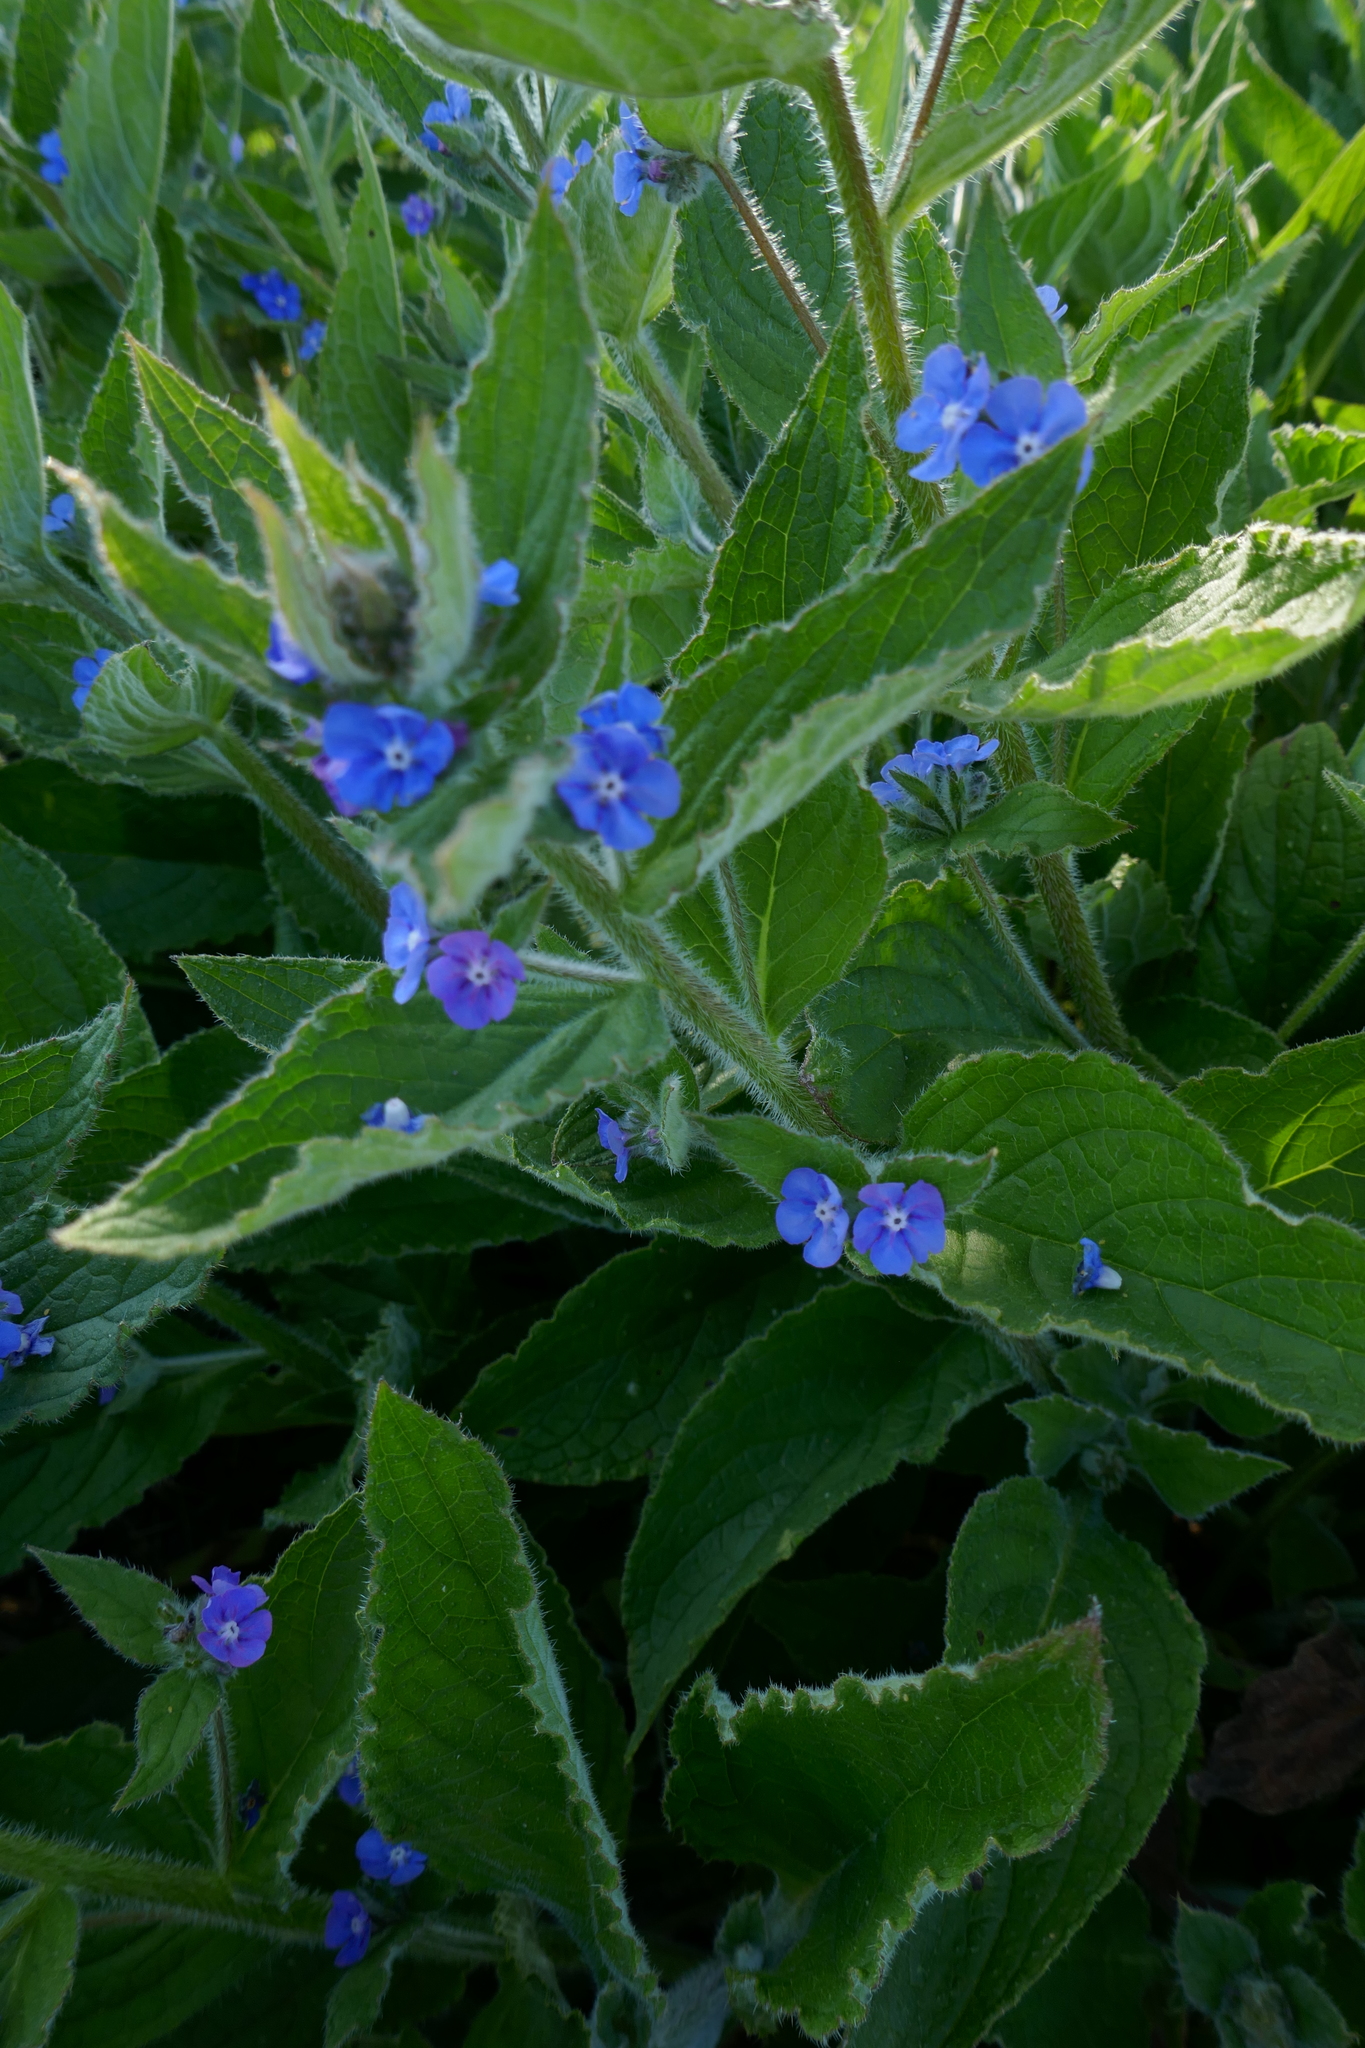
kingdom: Plantae
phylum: Tracheophyta
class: Magnoliopsida
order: Boraginales
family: Boraginaceae
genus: Pentaglottis
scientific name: Pentaglottis sempervirens
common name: Green alkanet
